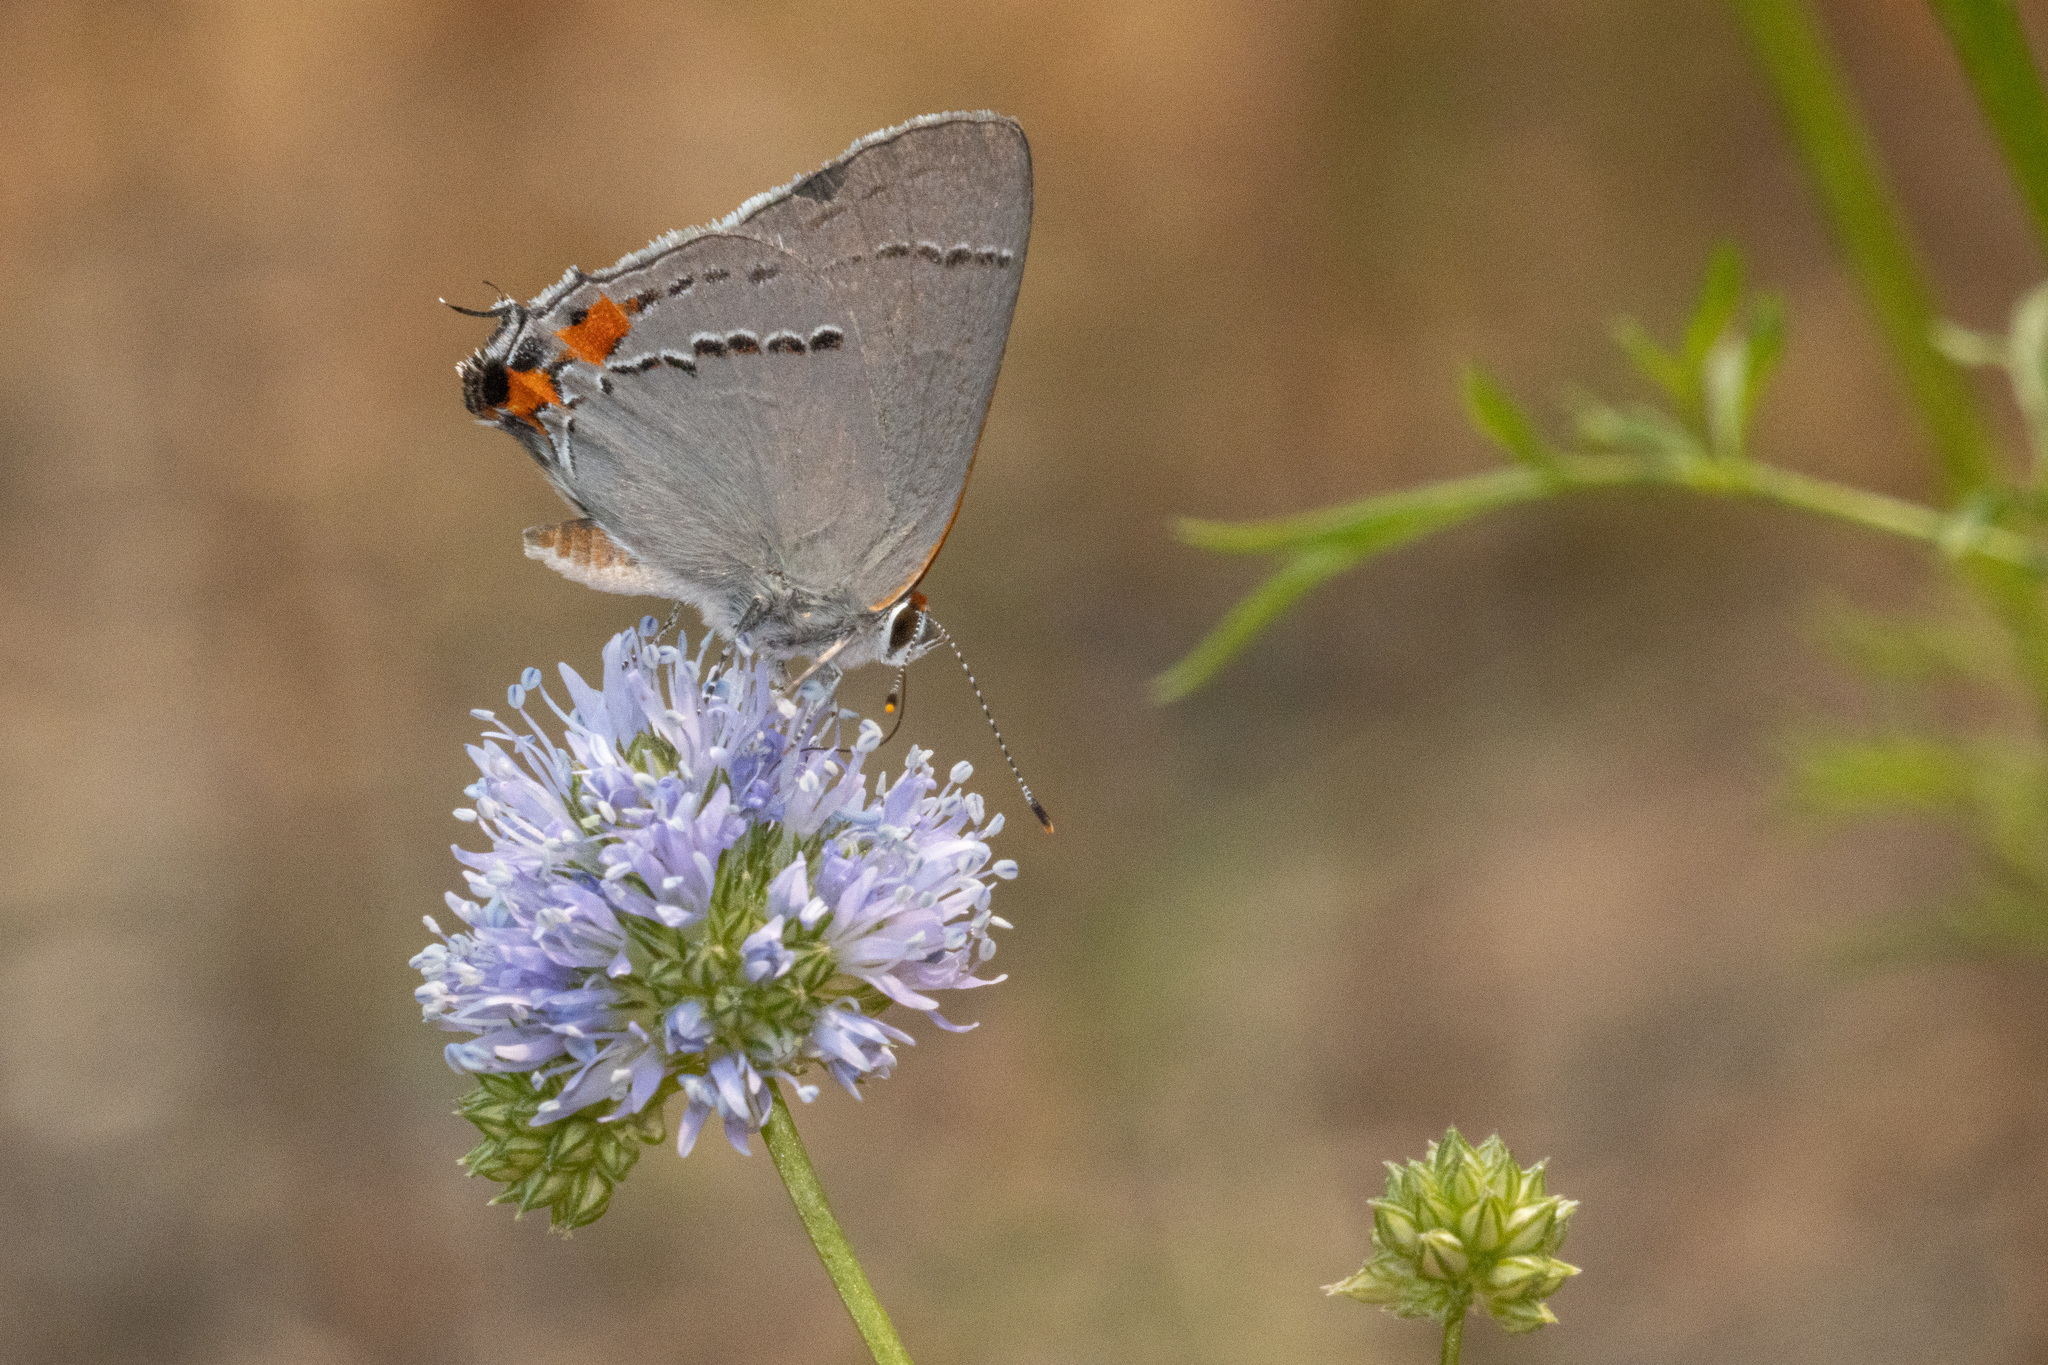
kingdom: Animalia
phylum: Arthropoda
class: Insecta
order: Lepidoptera
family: Lycaenidae
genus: Strymon
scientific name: Strymon melinus
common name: Gray hairstreak
